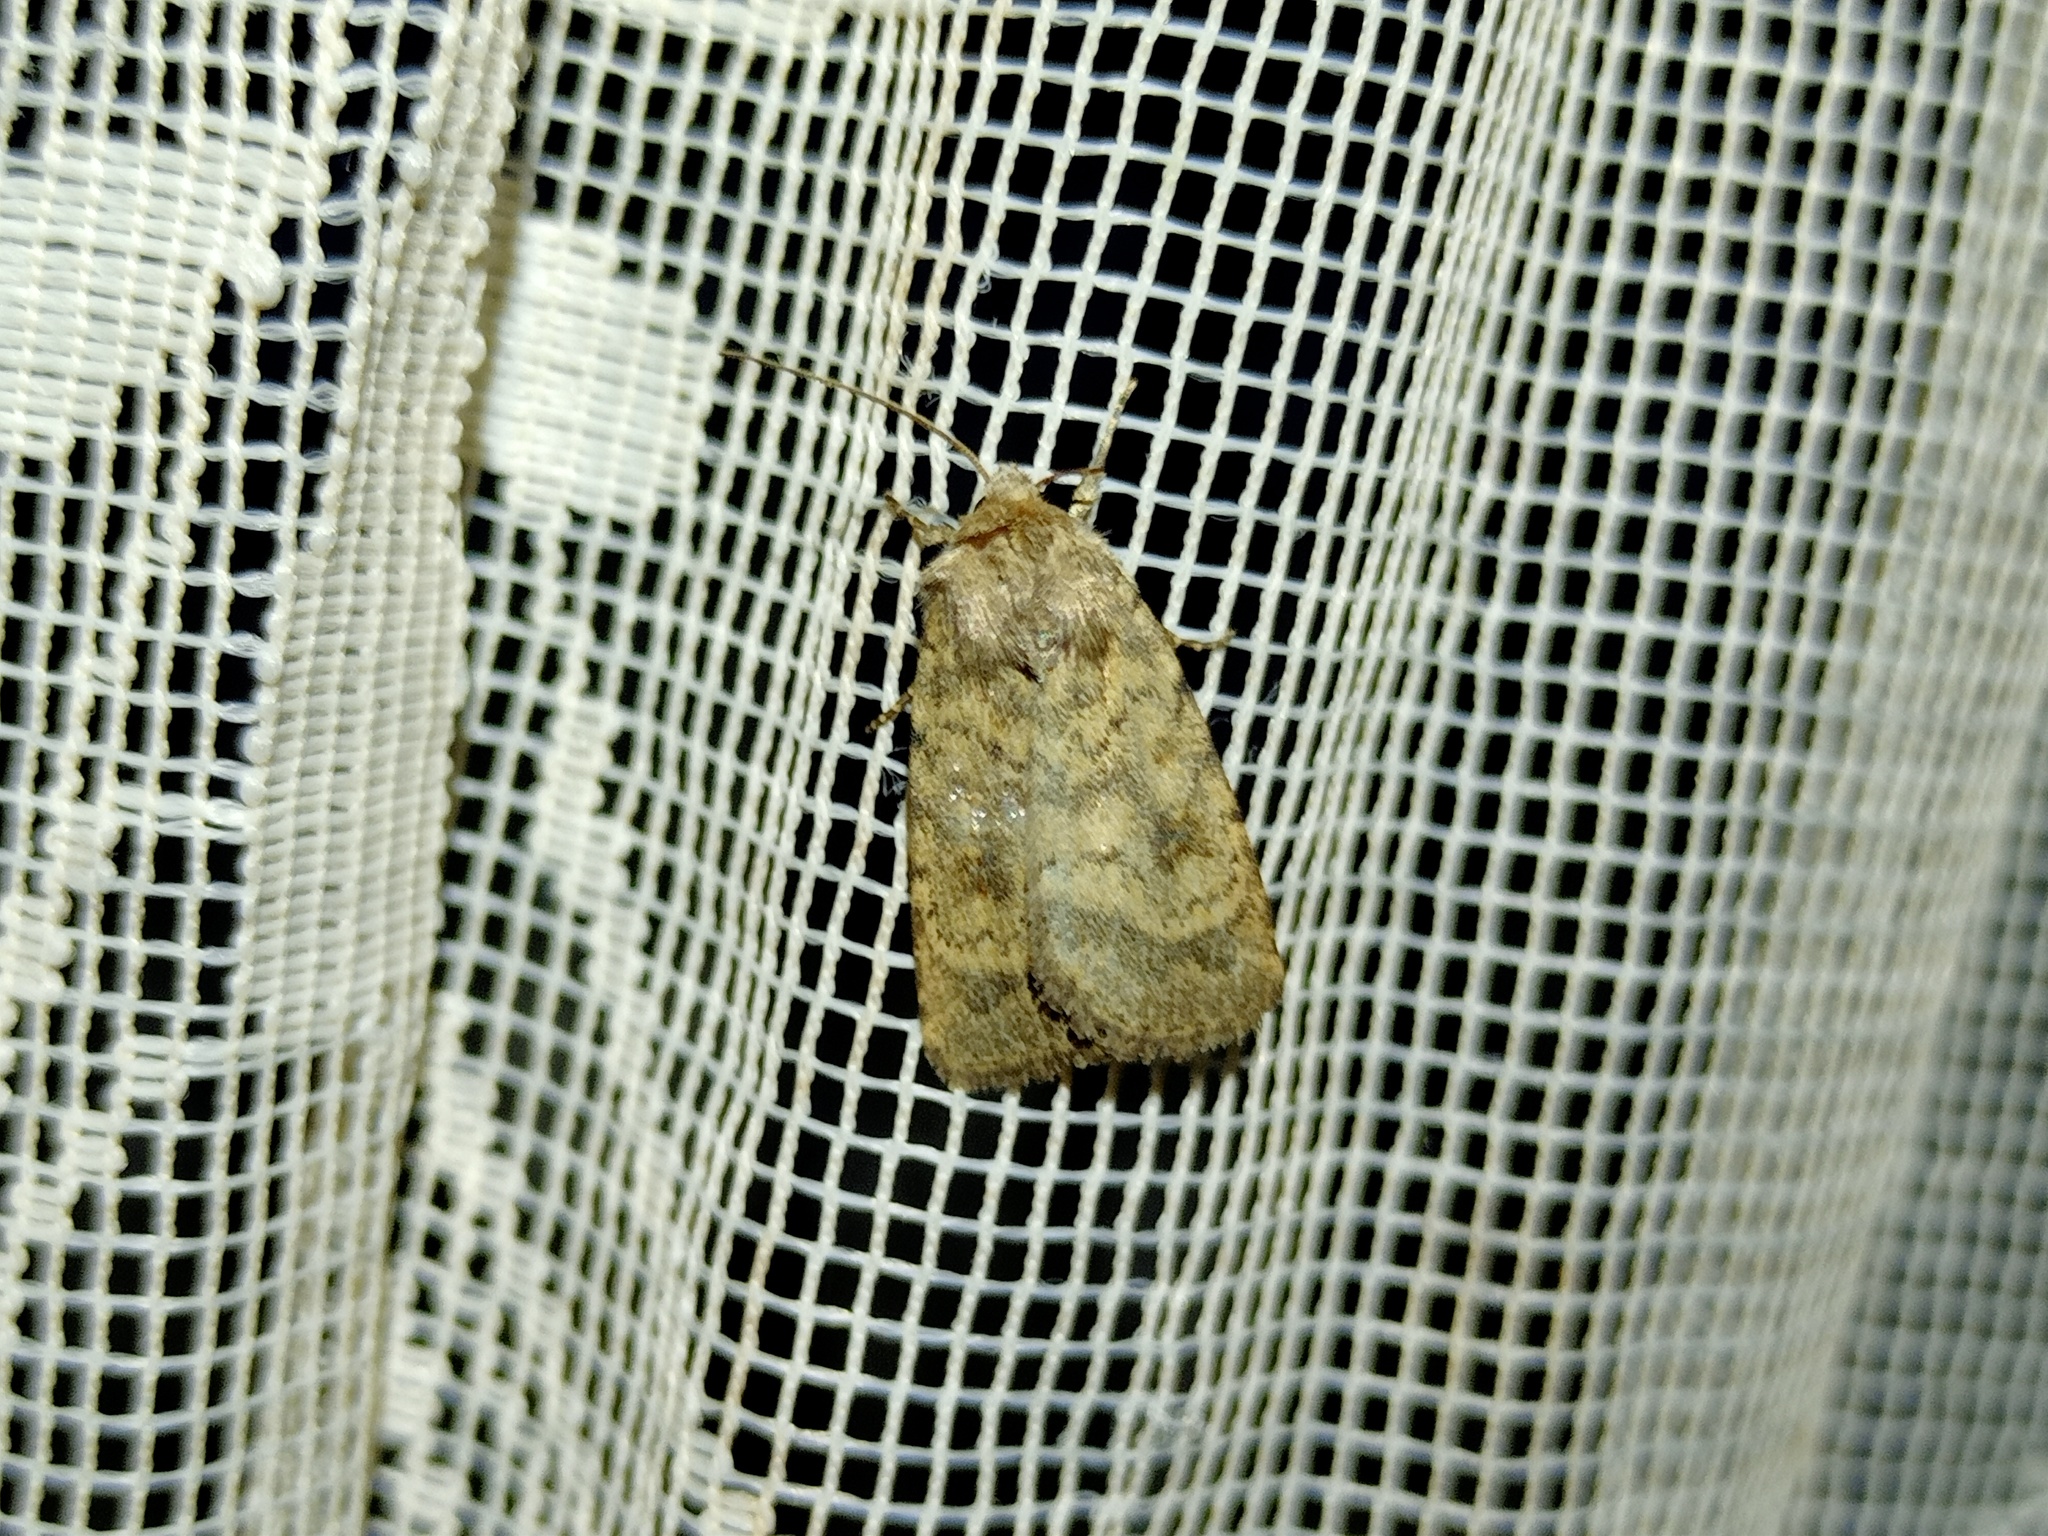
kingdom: Animalia
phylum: Arthropoda
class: Insecta
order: Lepidoptera
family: Noctuidae
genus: Caradrina
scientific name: Caradrina morpheus
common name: Mottled rustic
